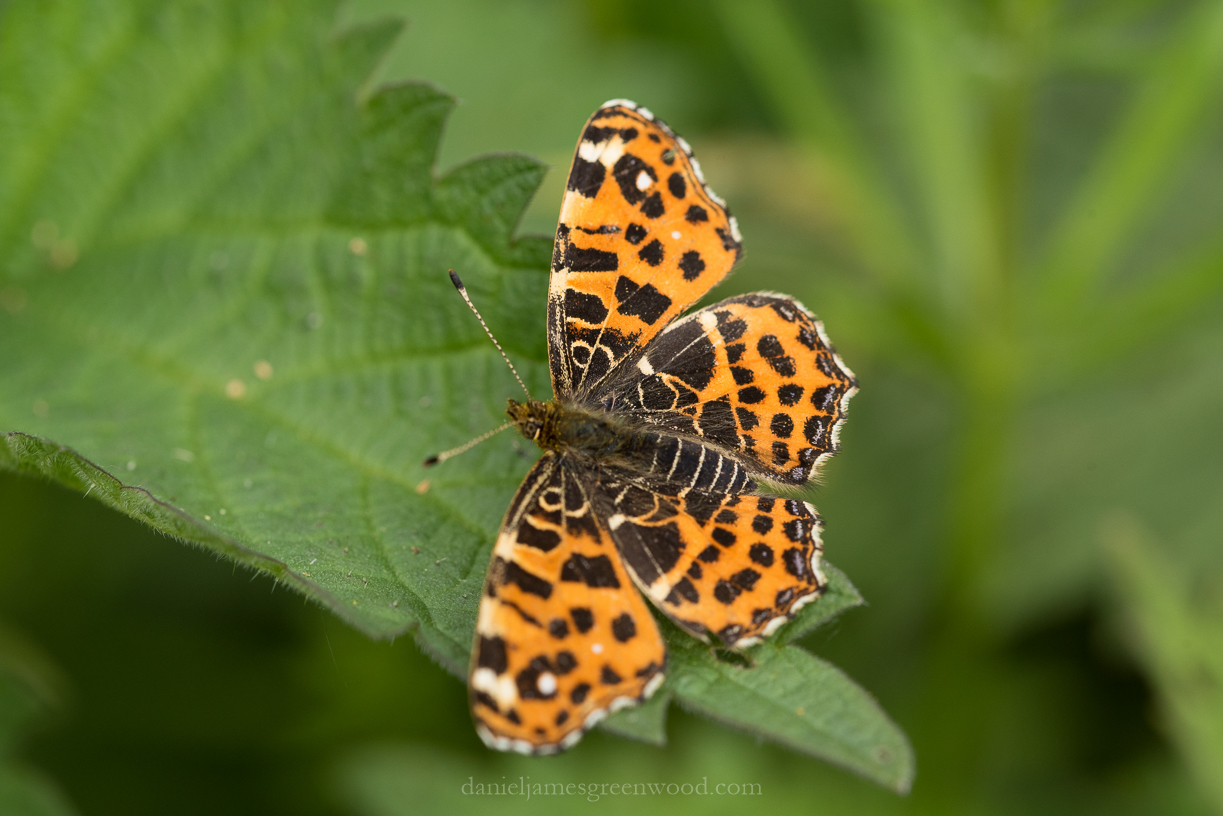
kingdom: Animalia
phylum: Arthropoda
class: Insecta
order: Lepidoptera
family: Nymphalidae
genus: Araschnia
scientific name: Araschnia levana
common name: Map butterfly
